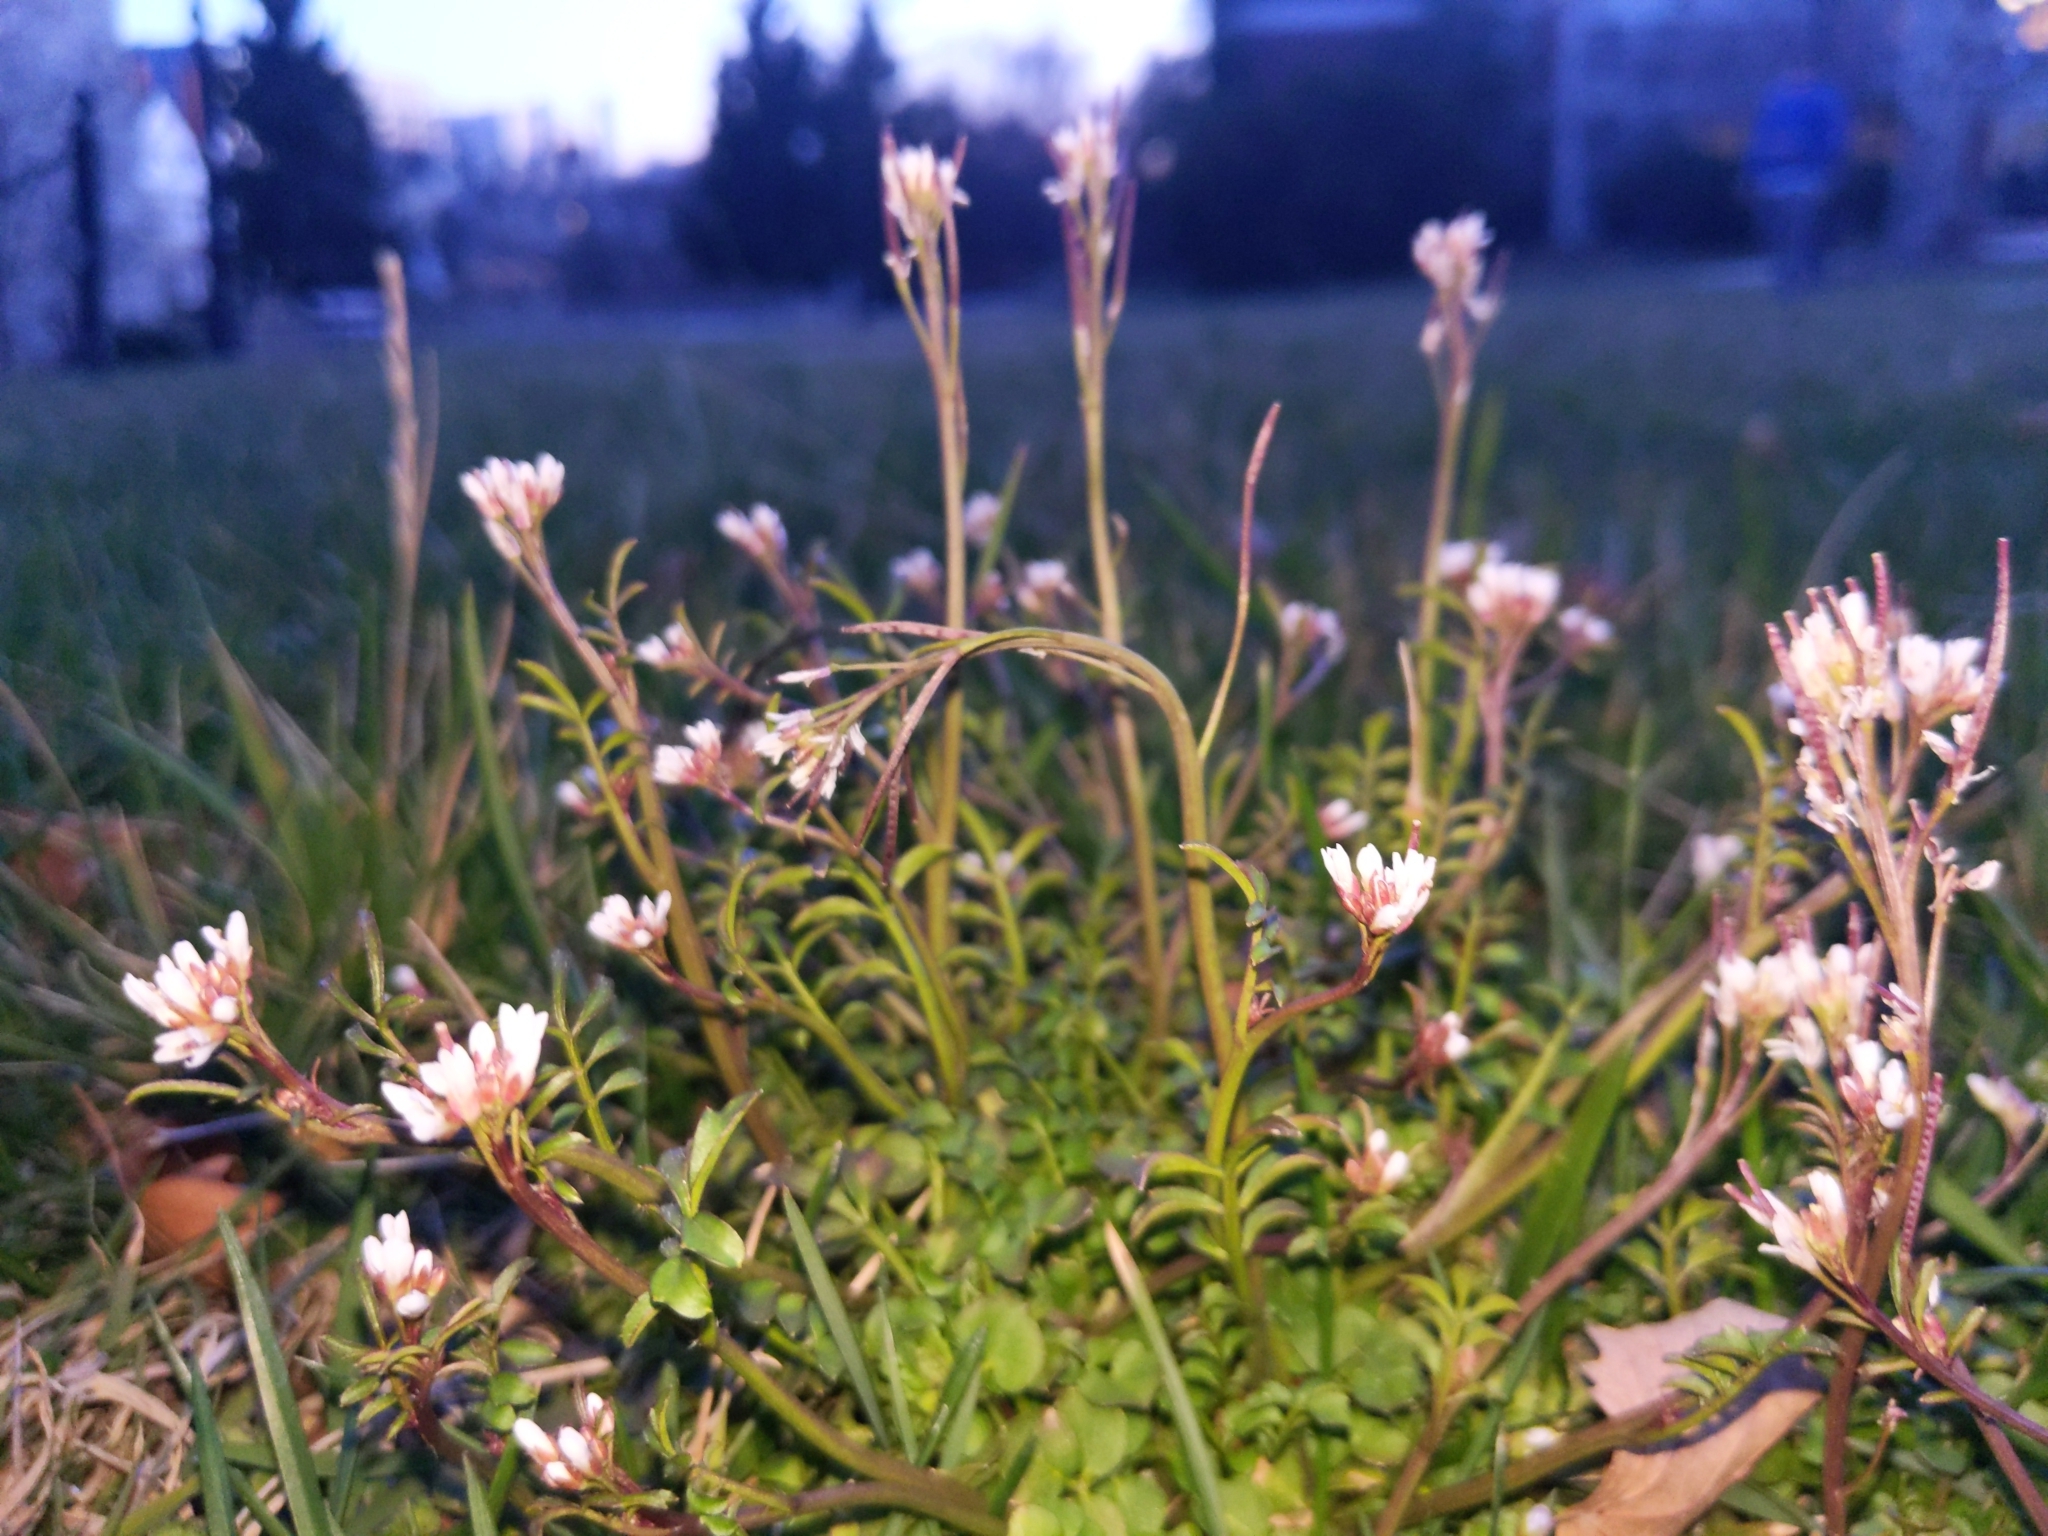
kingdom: Plantae
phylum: Tracheophyta
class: Magnoliopsida
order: Brassicales
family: Brassicaceae
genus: Cardamine
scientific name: Cardamine hirsuta
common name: Hairy bittercress
